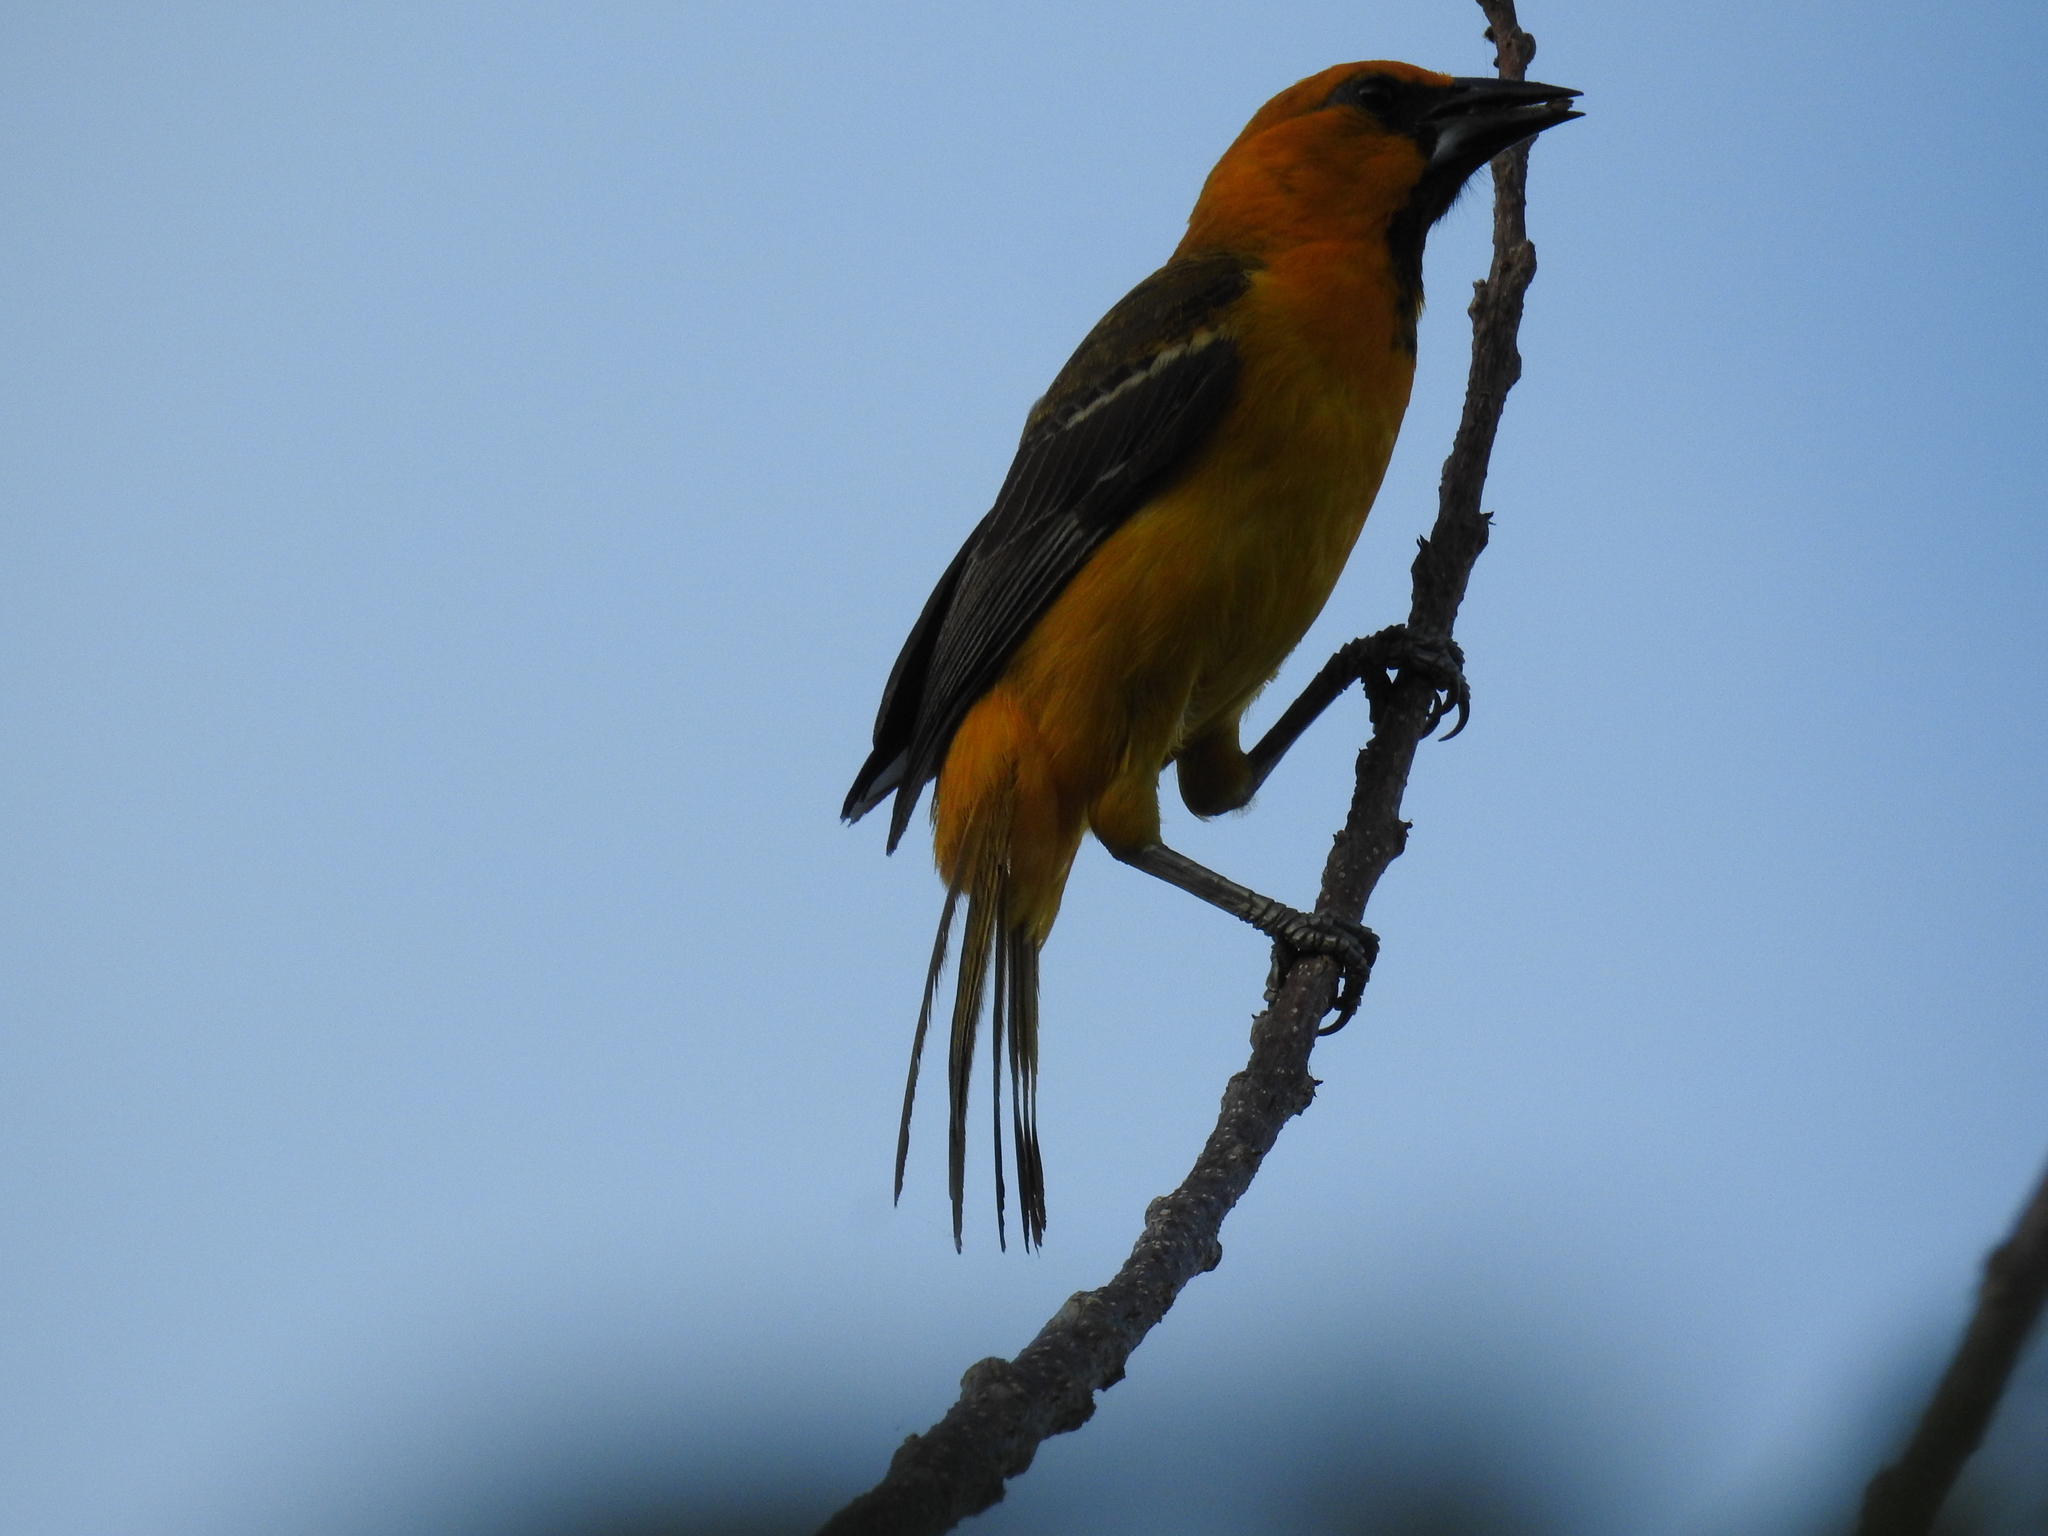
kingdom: Animalia
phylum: Chordata
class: Aves
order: Passeriformes
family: Icteridae
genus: Icterus
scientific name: Icterus gularis
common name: Altamira oriole
